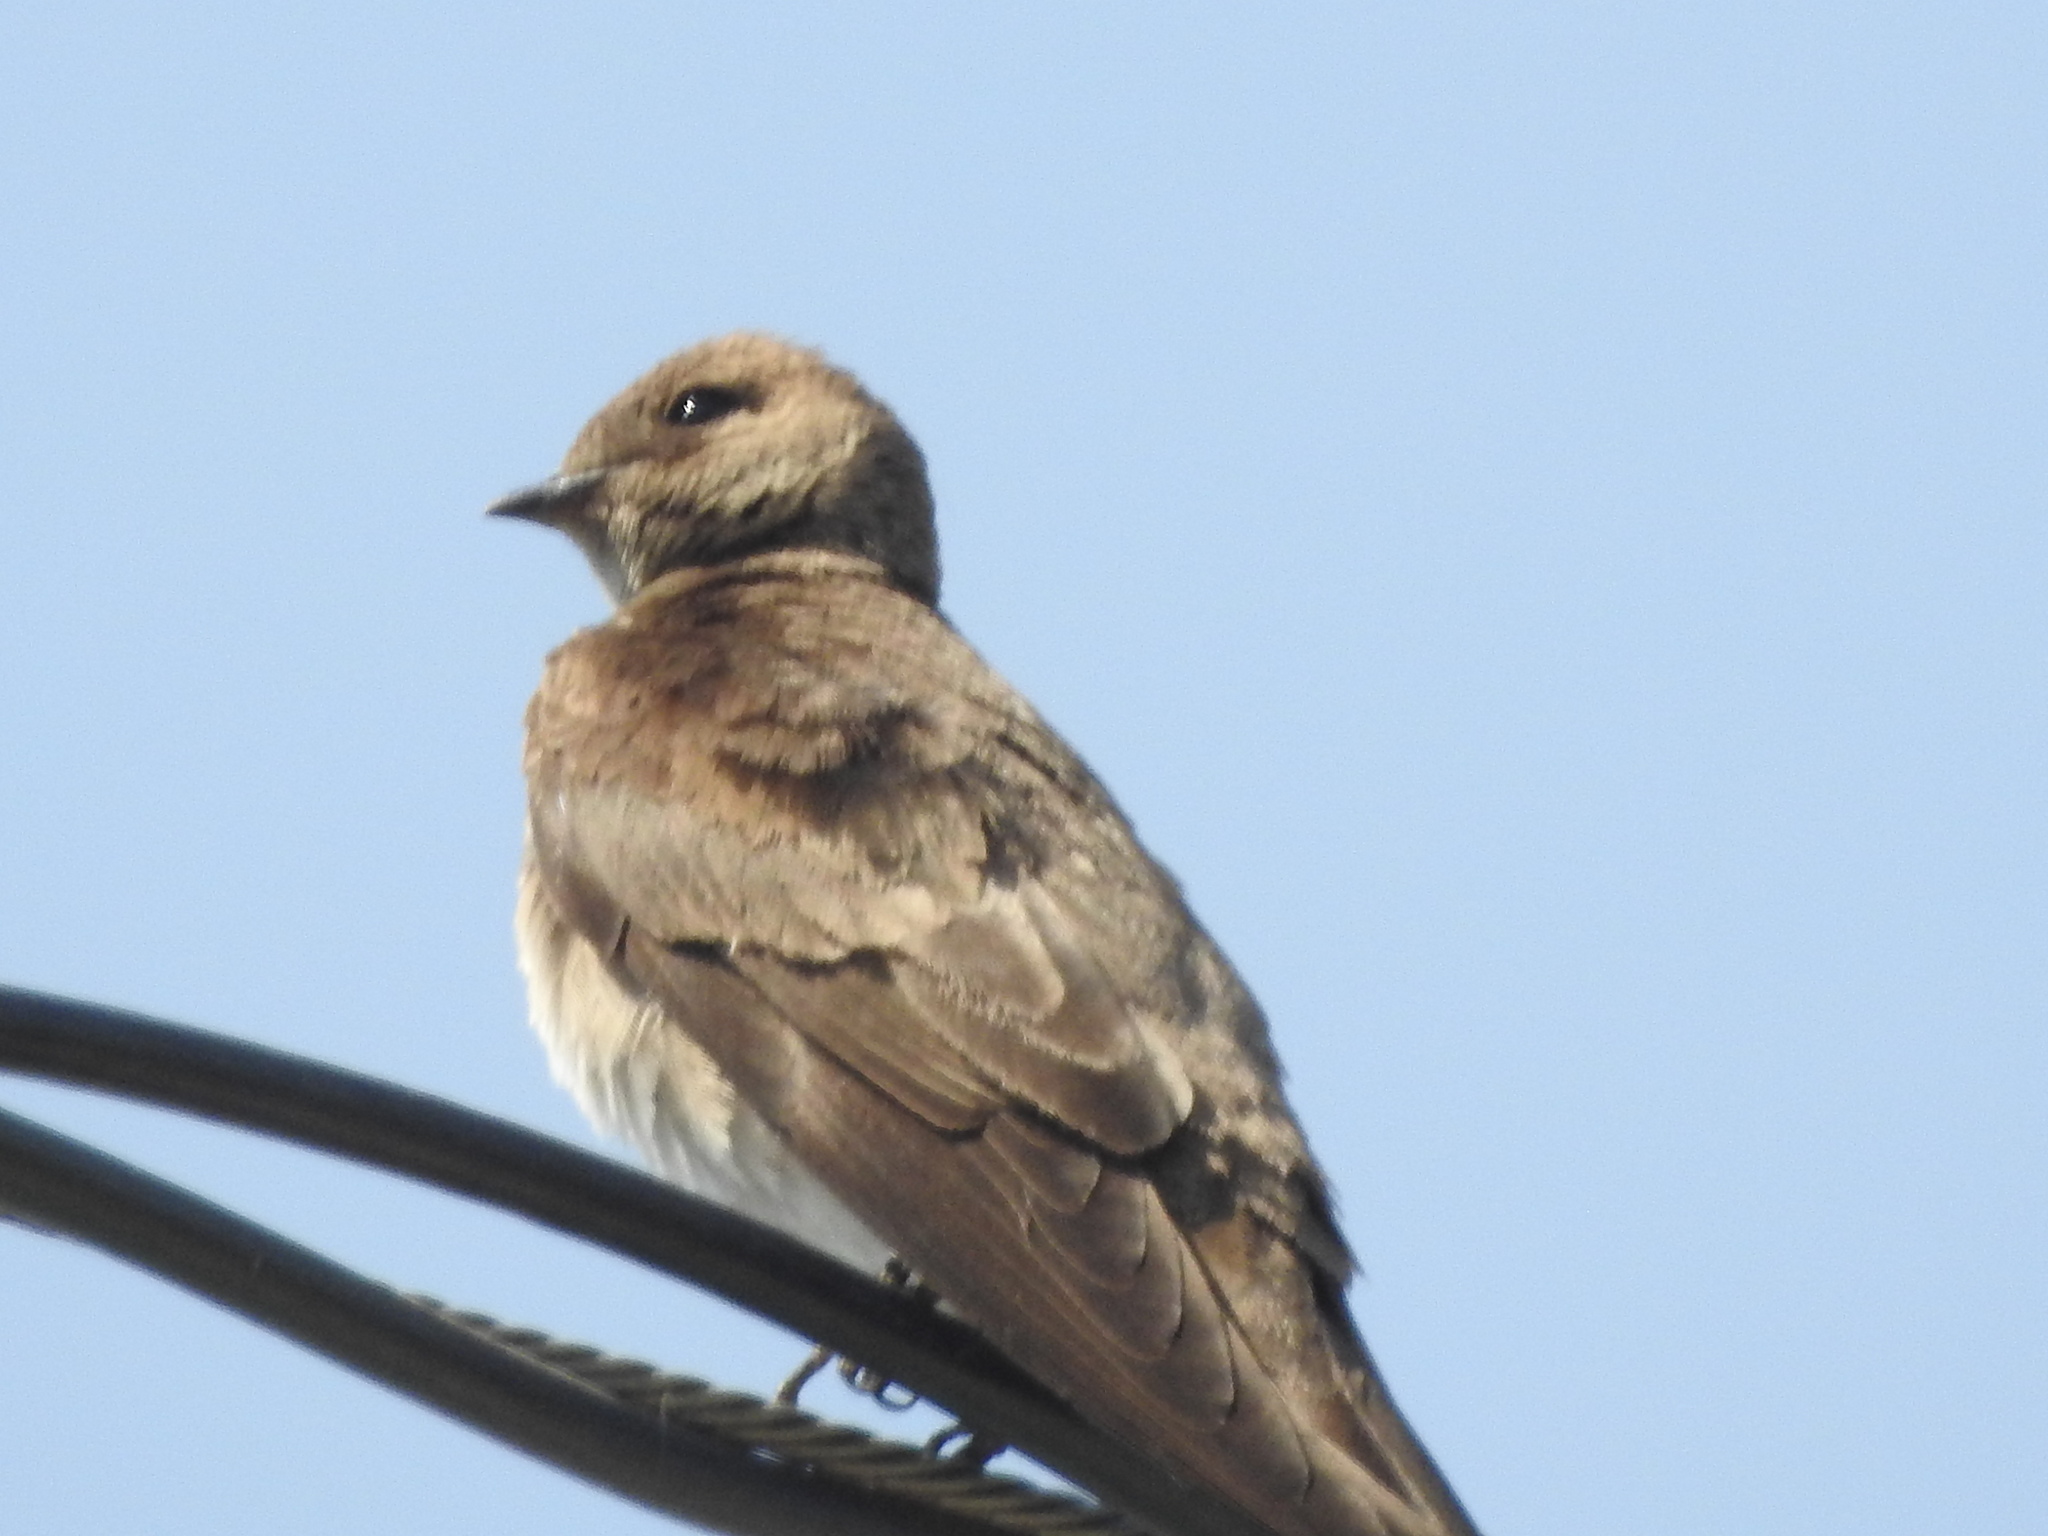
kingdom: Animalia
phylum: Chordata
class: Aves
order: Passeriformes
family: Hirundinidae
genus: Stelgidopteryx
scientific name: Stelgidopteryx serripennis
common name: Northern rough-winged swallow
